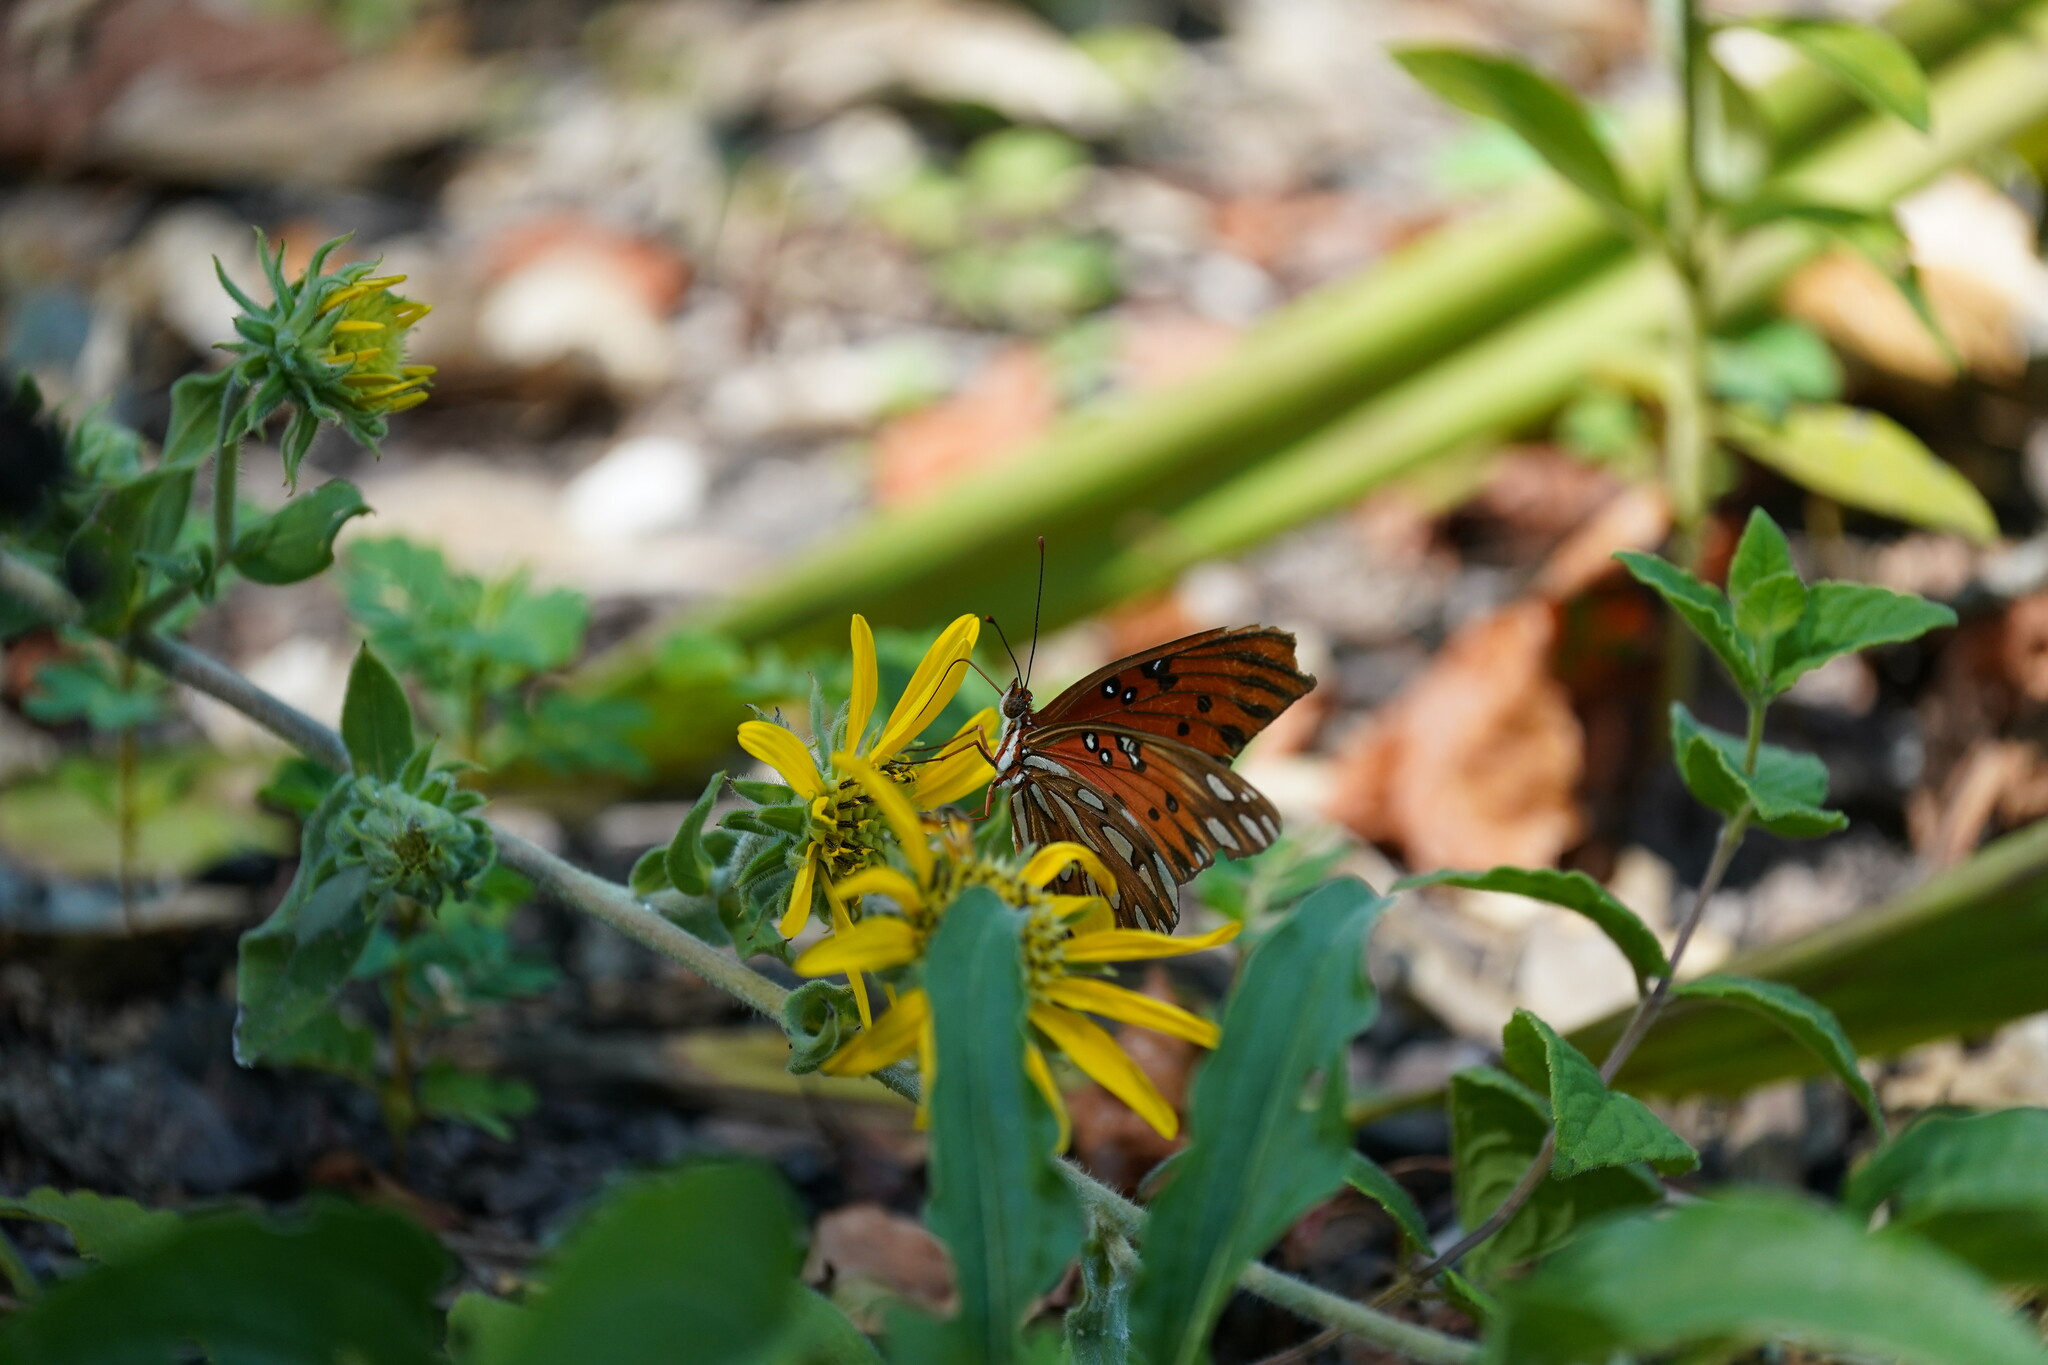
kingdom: Animalia
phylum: Arthropoda
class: Insecta
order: Lepidoptera
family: Nymphalidae
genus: Dione
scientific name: Dione vanillae
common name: Gulf fritillary
